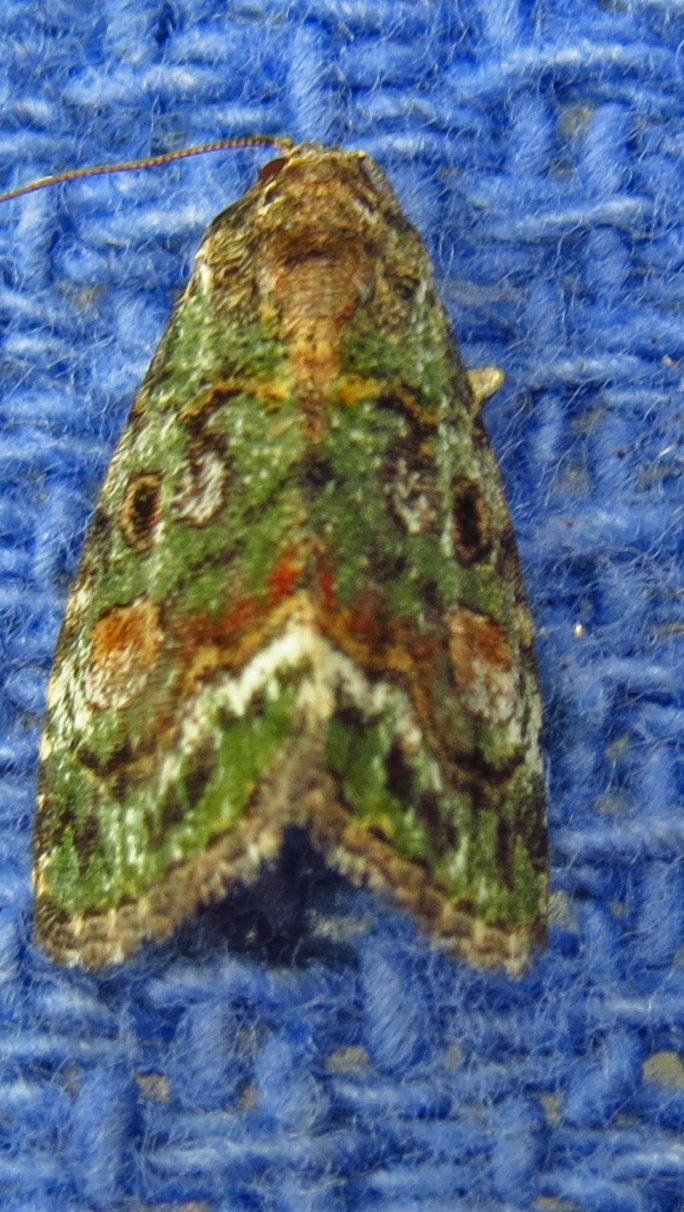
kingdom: Animalia
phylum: Arthropoda
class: Insecta
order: Lepidoptera
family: Noctuidae
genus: Lithacodia
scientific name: Lithacodia musta
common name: Small mossy glyph
